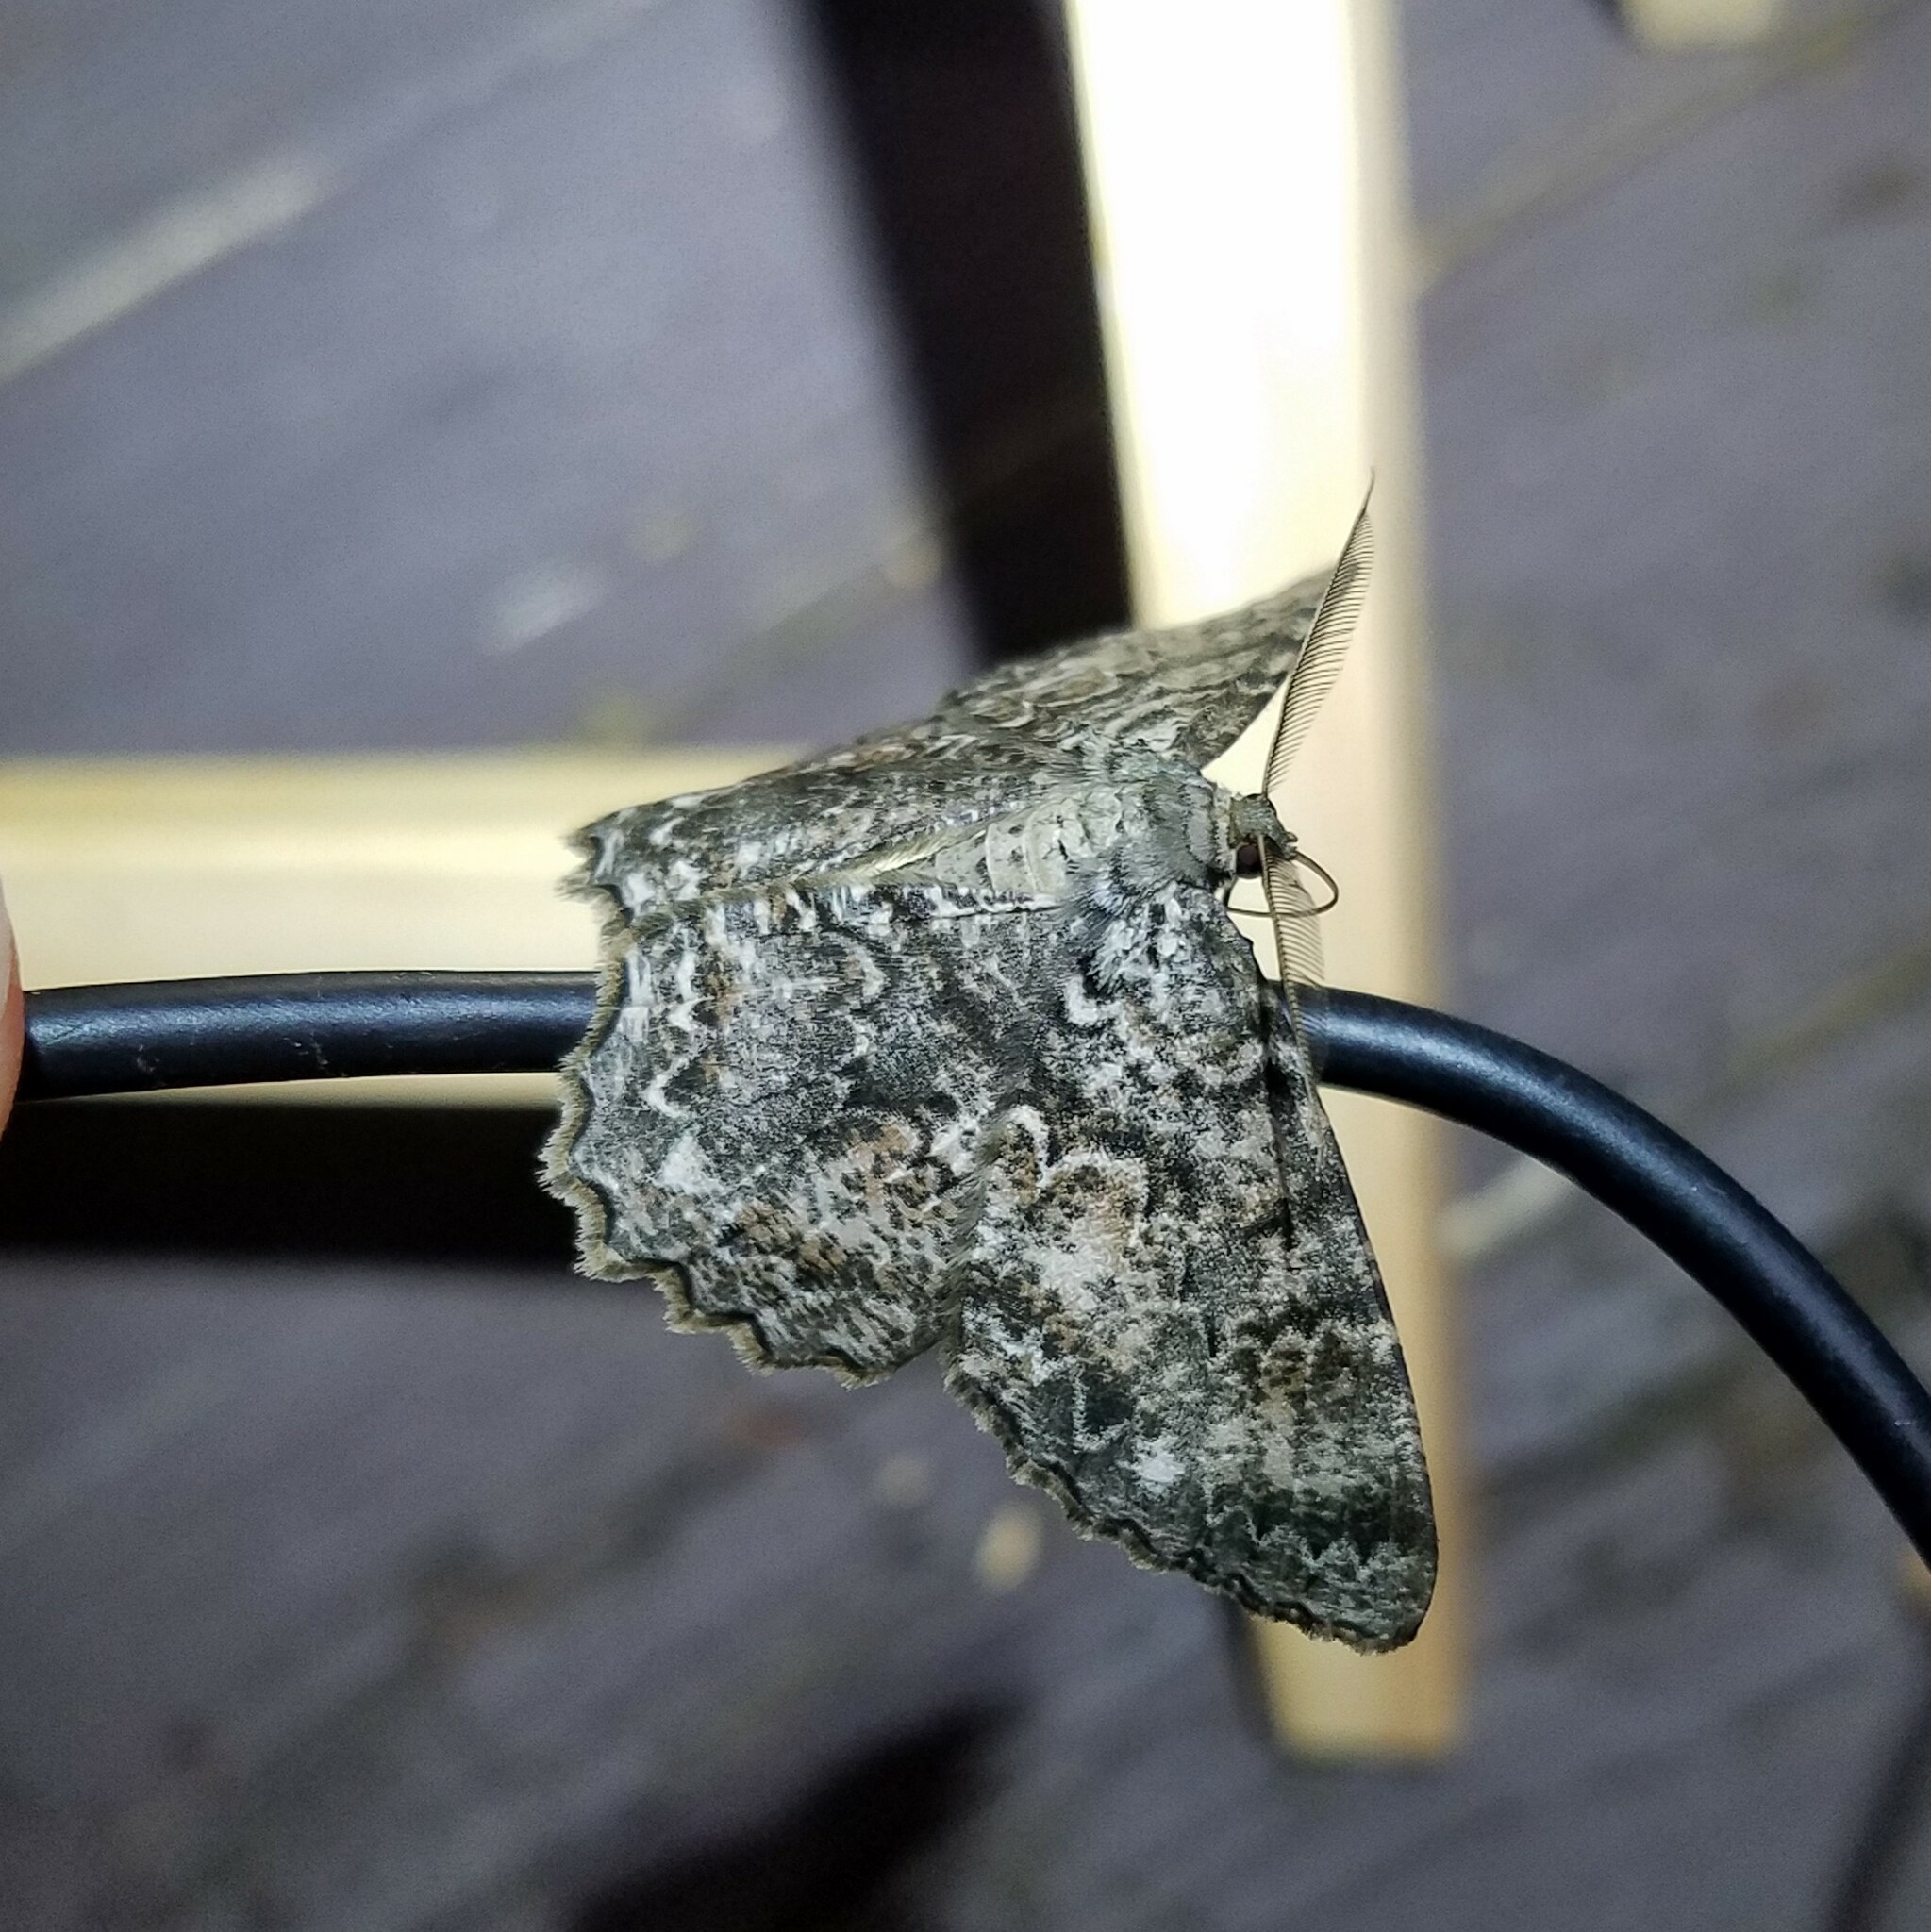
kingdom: Animalia
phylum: Arthropoda
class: Insecta
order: Lepidoptera
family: Geometridae
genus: Epimecis
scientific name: Epimecis hortaria
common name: Tulip-tree beauty
